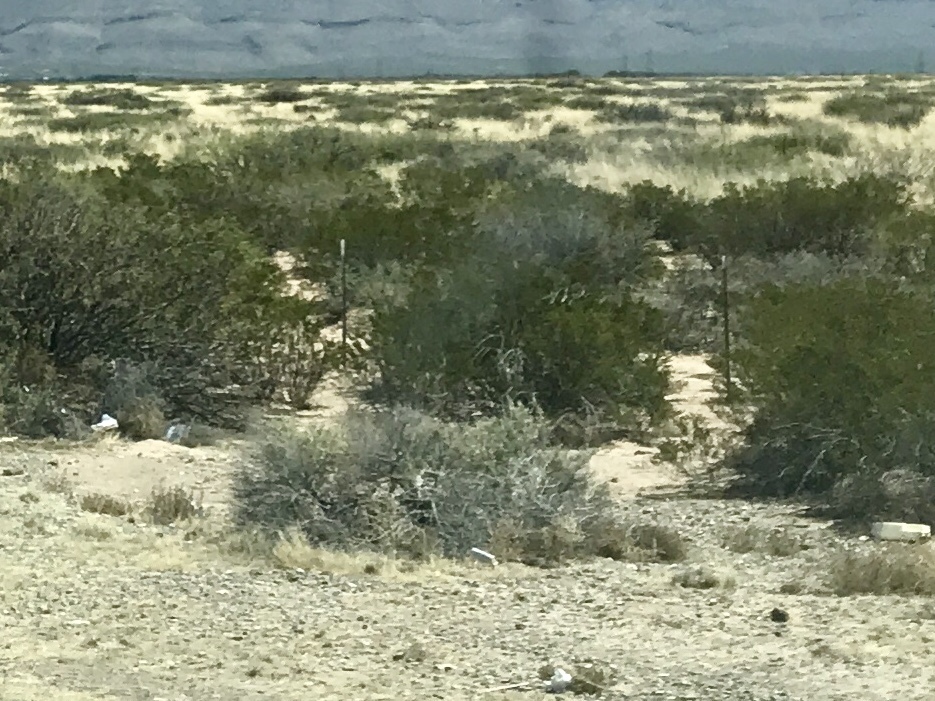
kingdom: Plantae
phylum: Tracheophyta
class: Magnoliopsida
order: Zygophyllales
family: Zygophyllaceae
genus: Larrea
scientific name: Larrea tridentata
